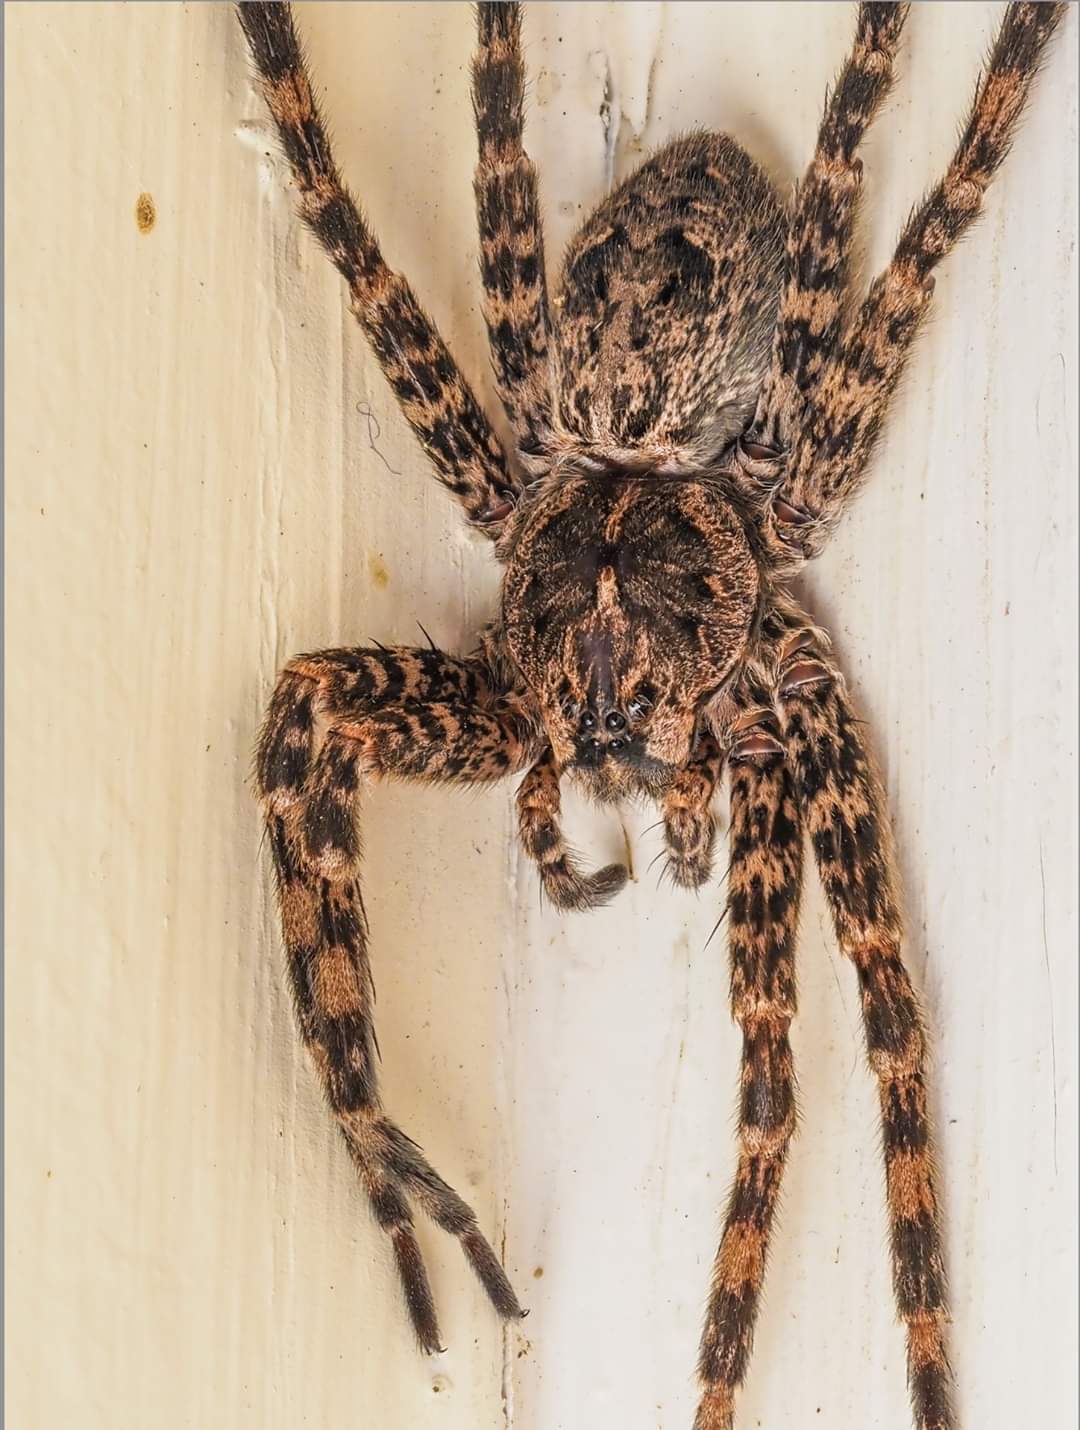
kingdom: Animalia
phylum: Arthropoda
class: Arachnida
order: Araneae
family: Pisauridae
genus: Dolomedes
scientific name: Dolomedes tenebrosus
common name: Dark fishing spider
